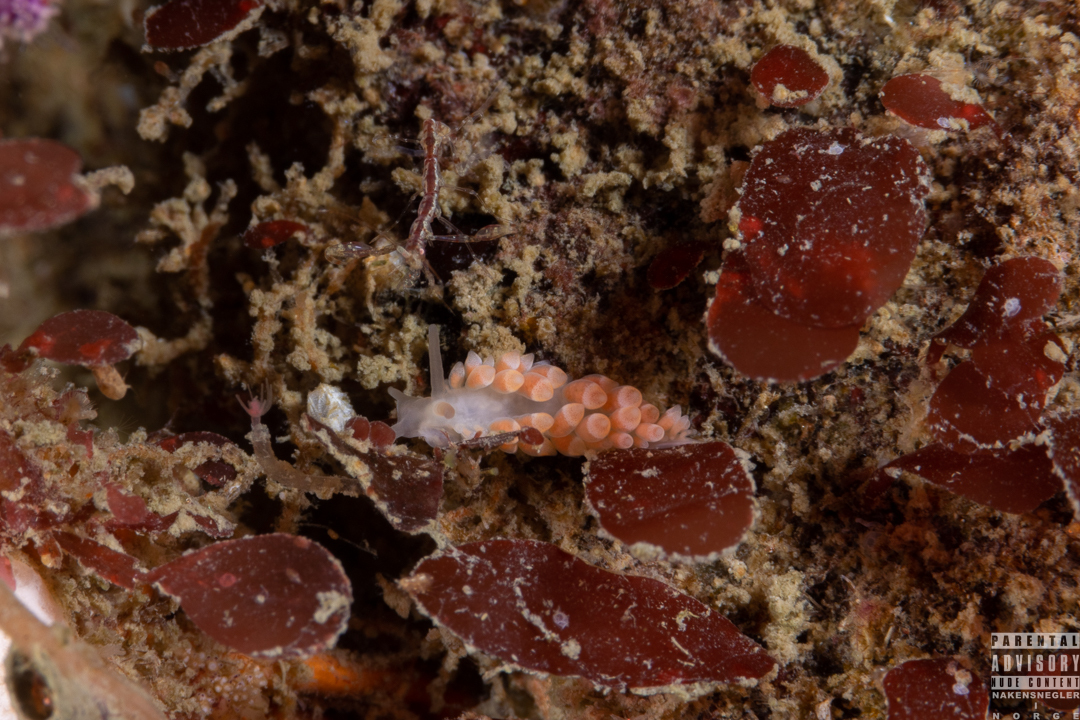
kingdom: Animalia
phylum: Mollusca
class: Gastropoda
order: Nudibranchia
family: Trinchesiidae
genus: Catriona
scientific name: Catriona aurantia
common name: Corange-tip cuthona
